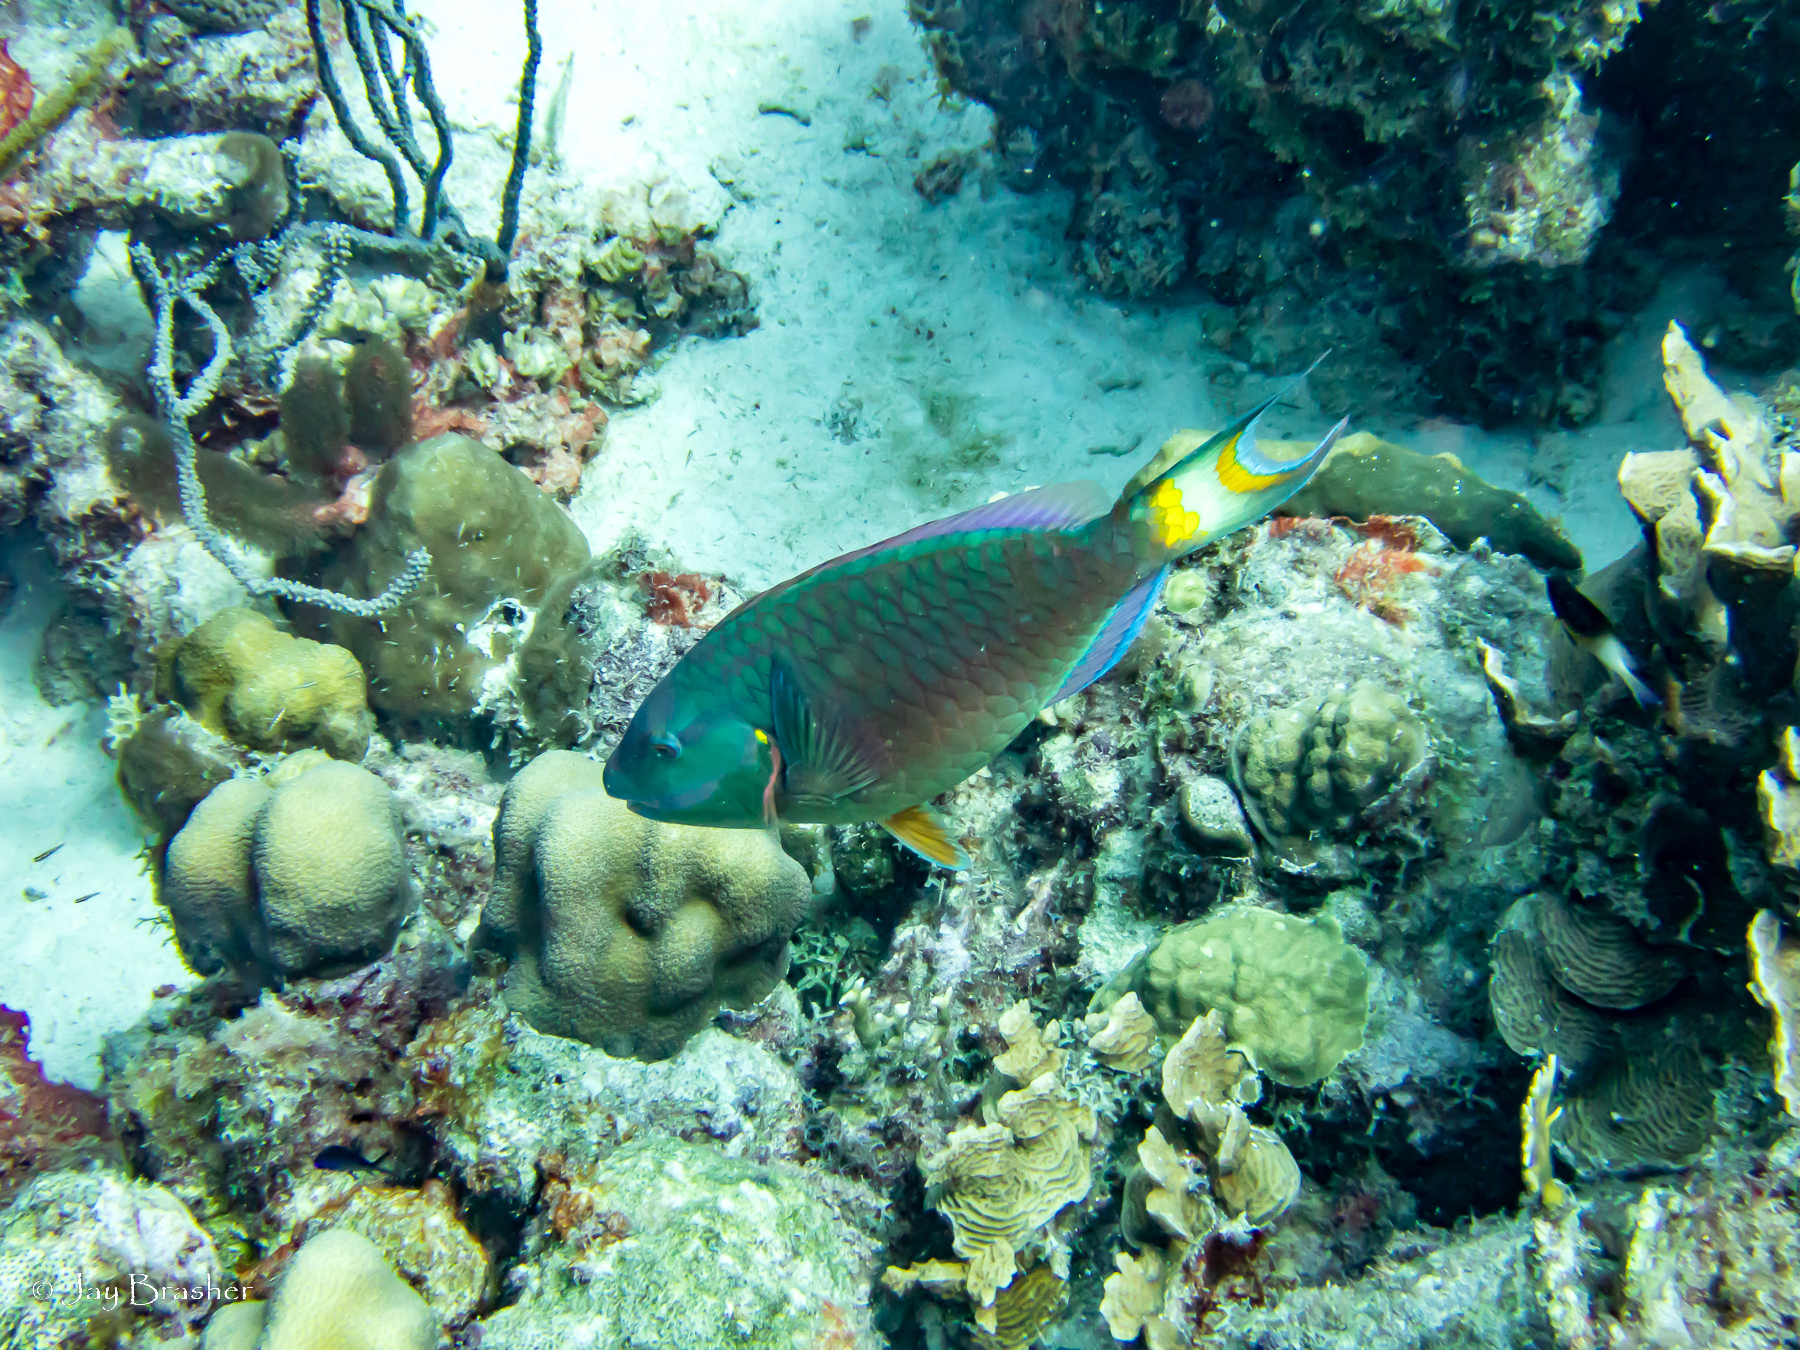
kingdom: Animalia
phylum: Chordata
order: Perciformes
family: Scaridae
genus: Sparisoma
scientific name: Sparisoma viride
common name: Stoplight parrotfish
